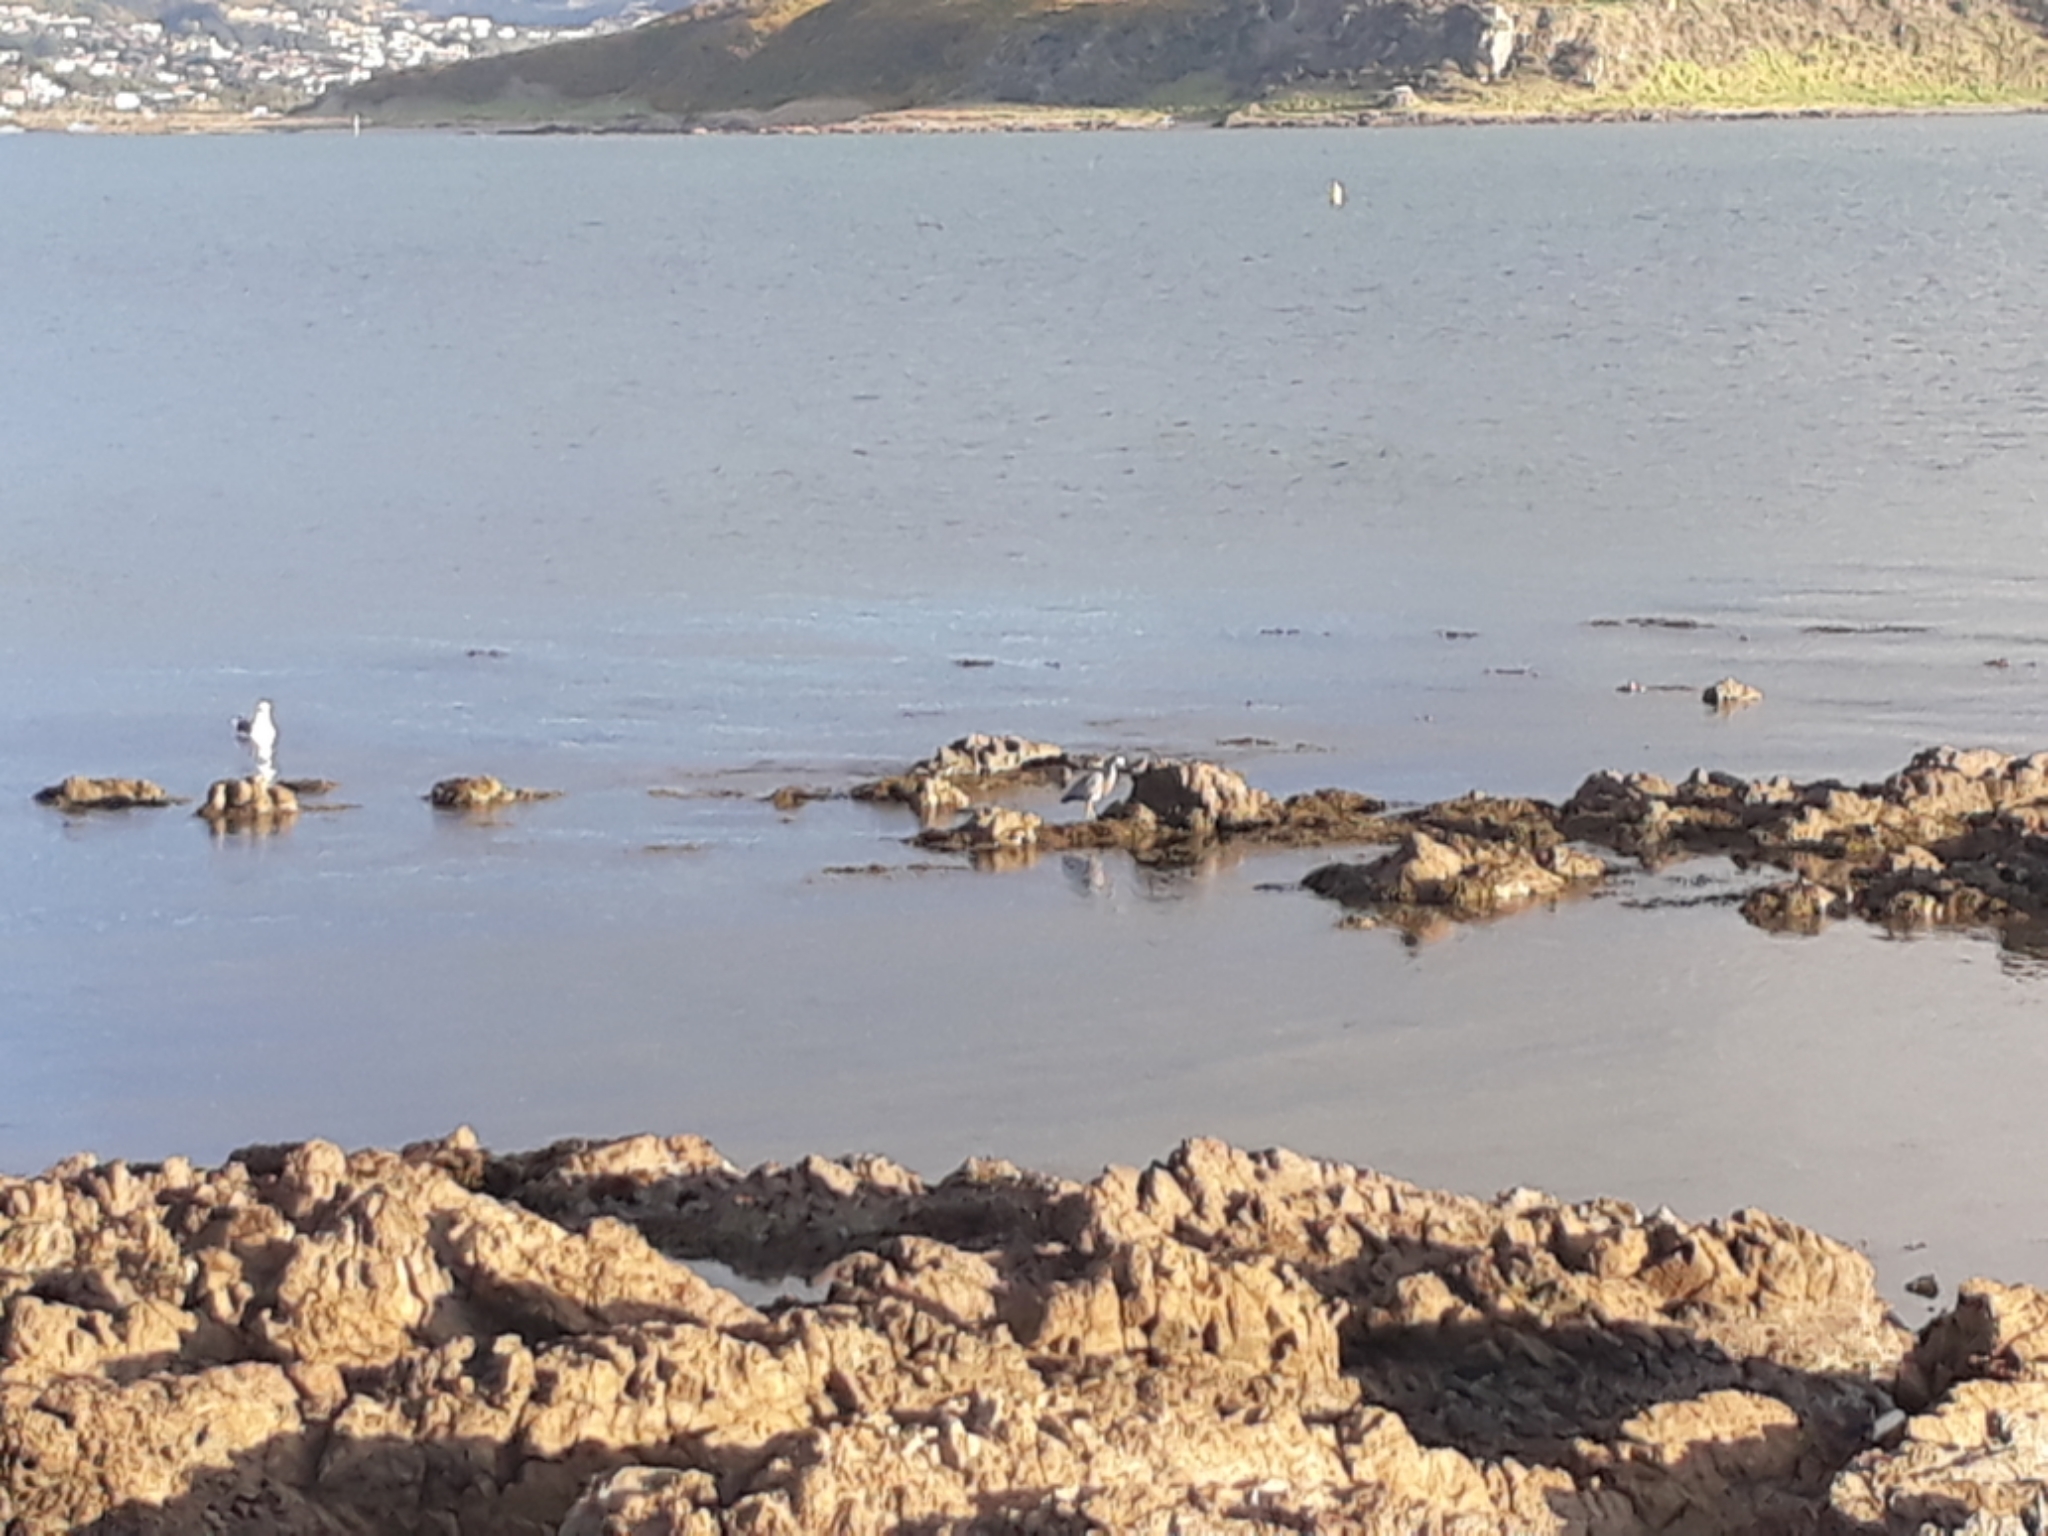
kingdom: Animalia
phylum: Chordata
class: Aves
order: Pelecaniformes
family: Ardeidae
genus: Egretta
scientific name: Egretta novaehollandiae
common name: White-faced heron
